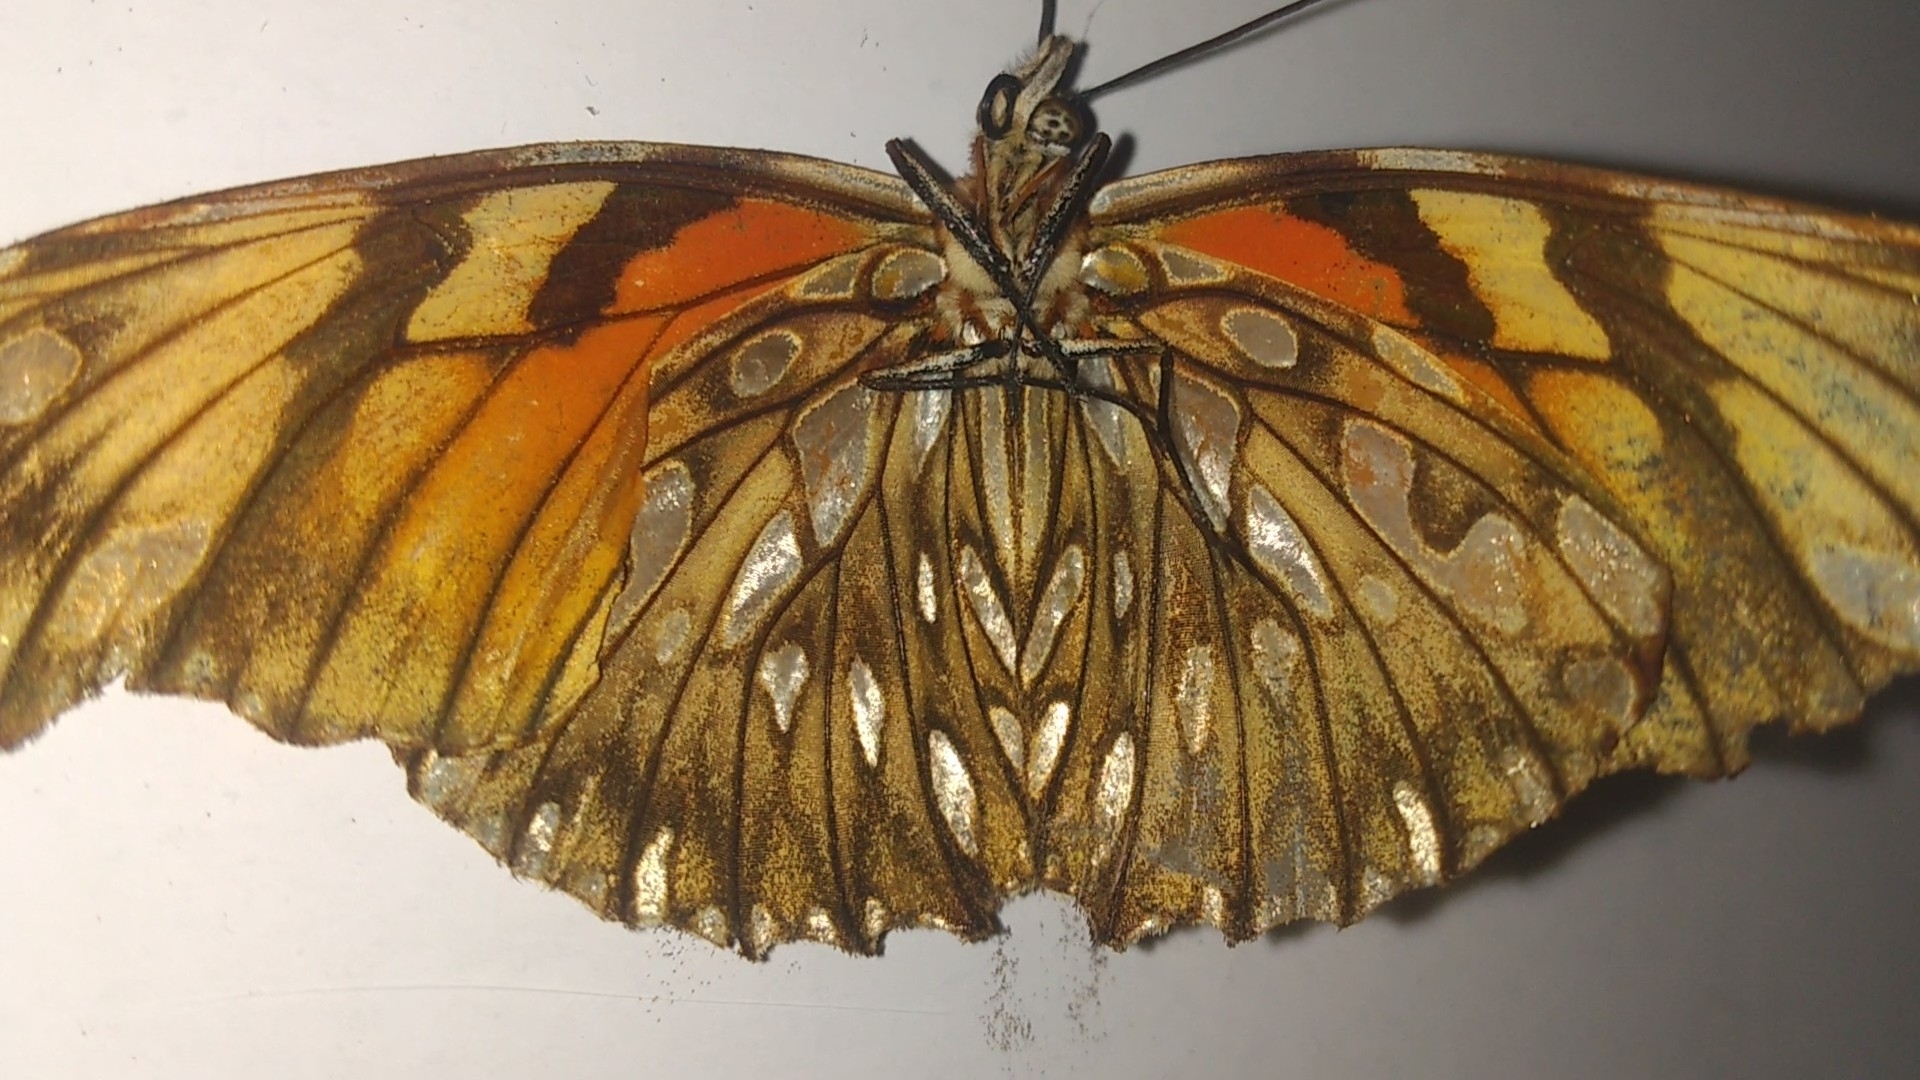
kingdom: Animalia
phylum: Arthropoda
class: Insecta
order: Lepidoptera
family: Nymphalidae
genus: Dione
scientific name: Dione juno
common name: Juno silverspot
